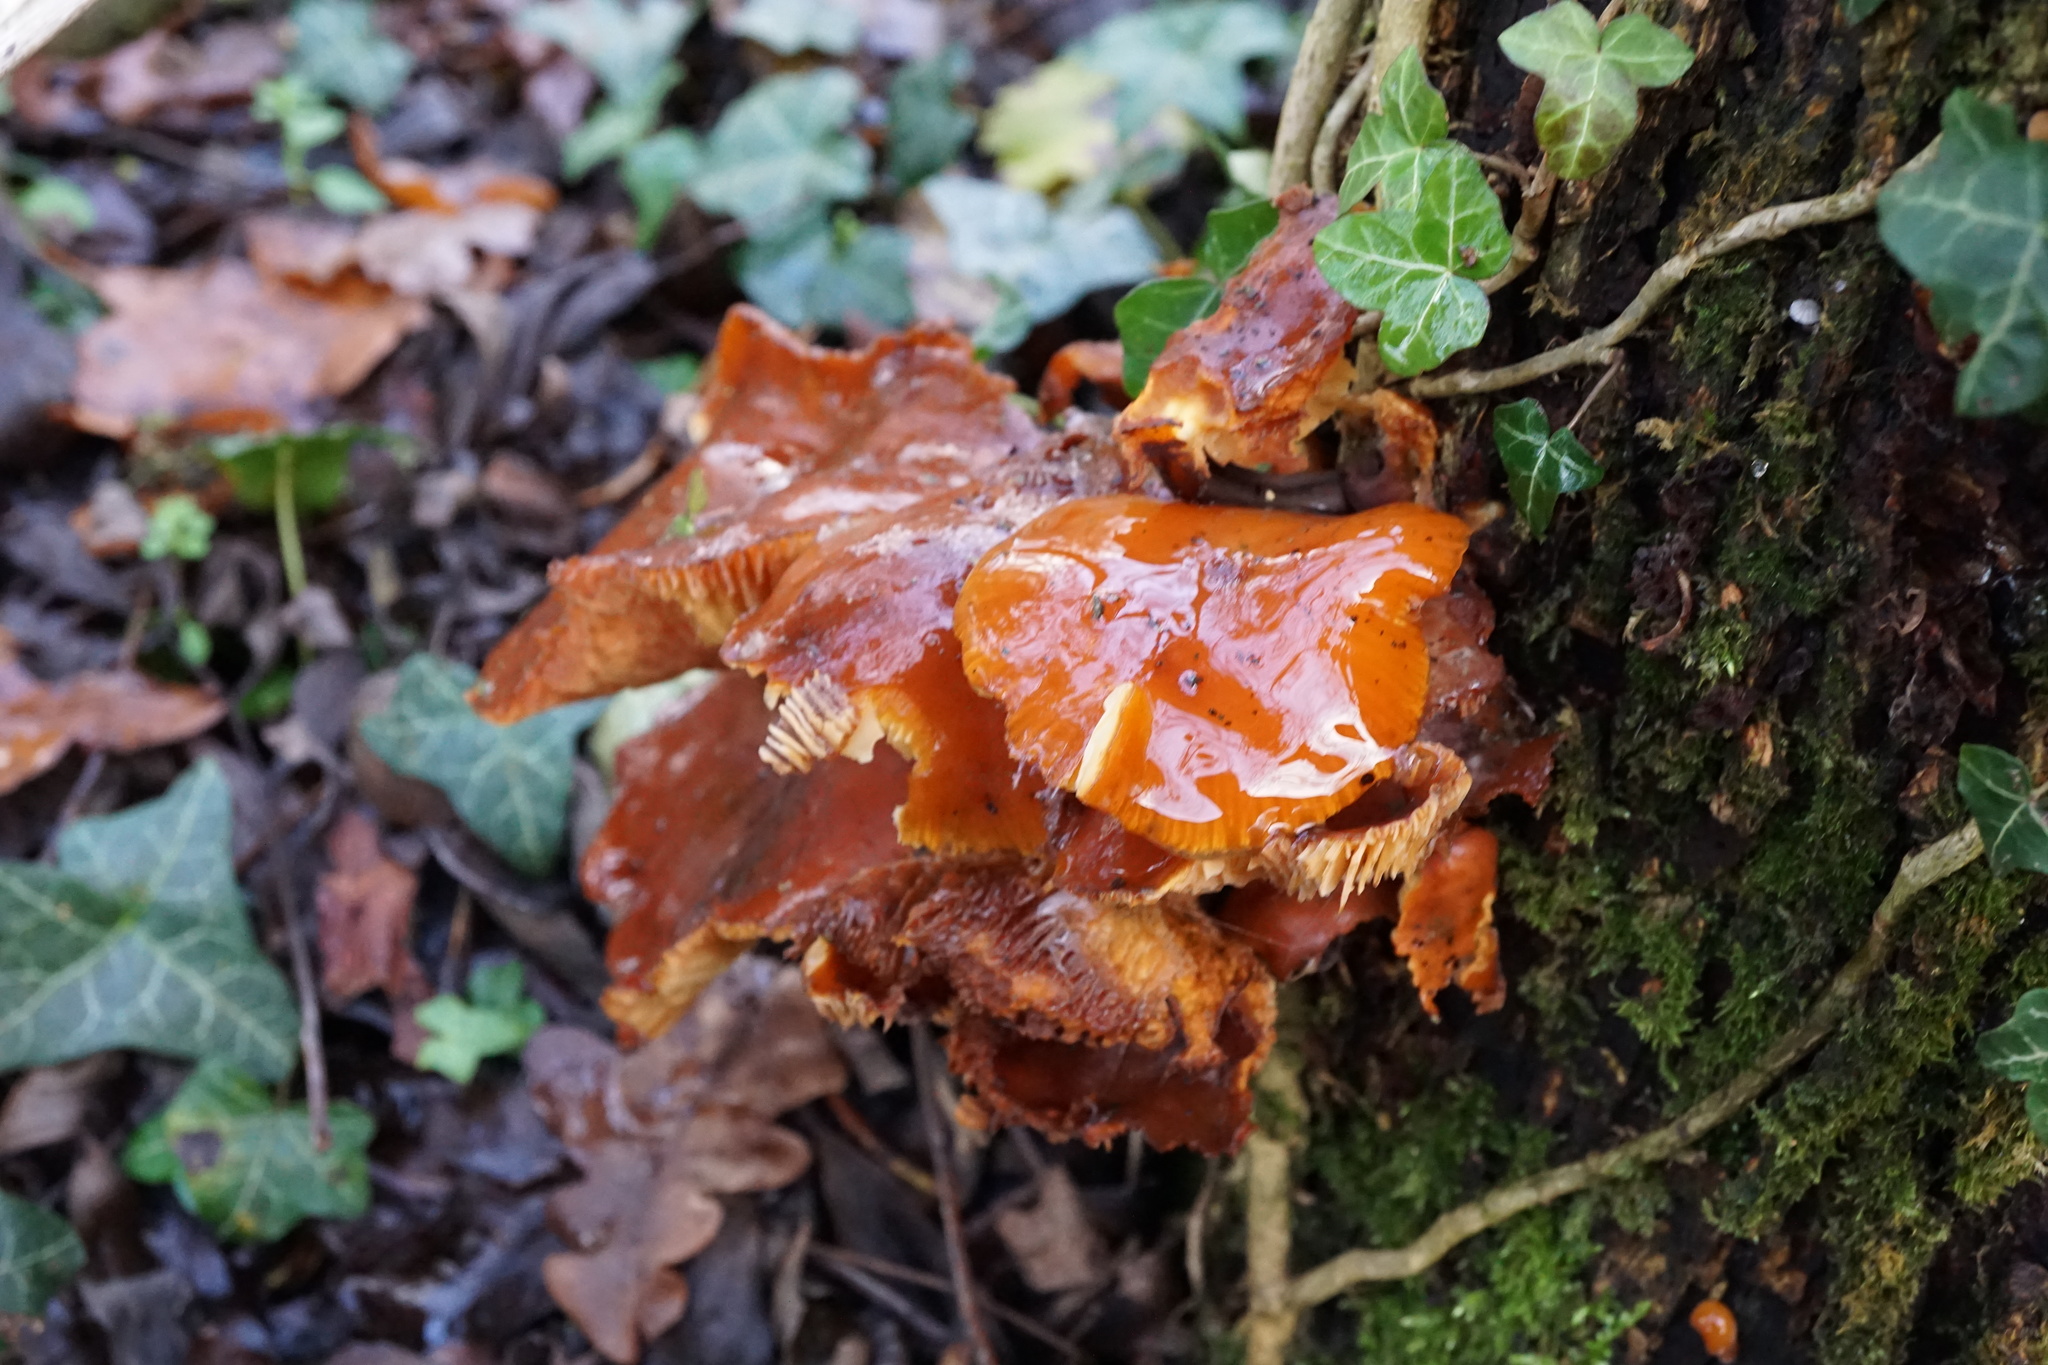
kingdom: Fungi
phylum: Basidiomycota
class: Agaricomycetes
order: Agaricales
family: Physalacriaceae
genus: Flammulina
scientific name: Flammulina
